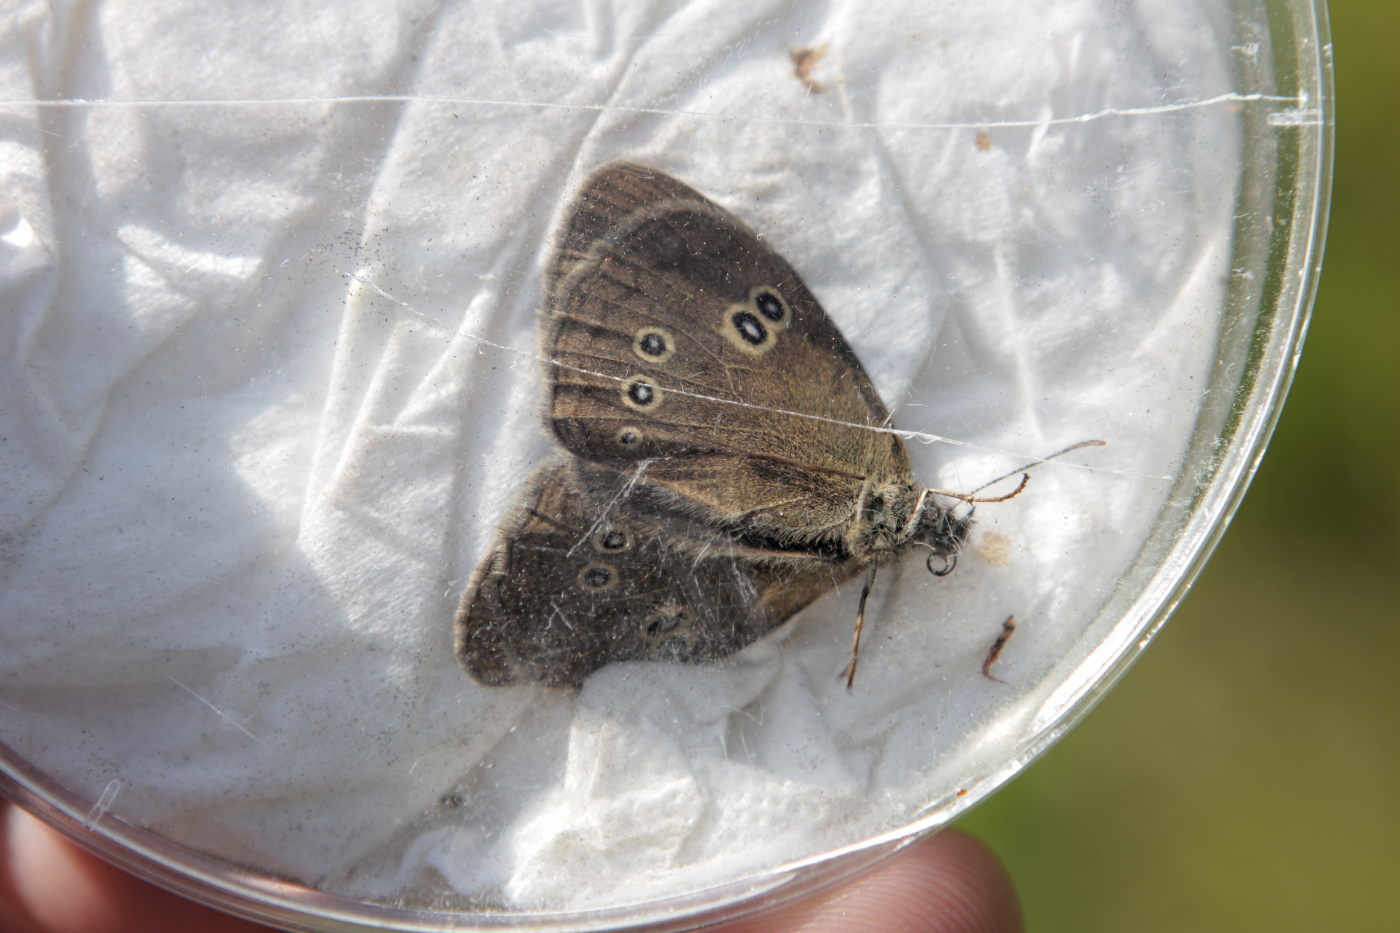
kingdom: Animalia
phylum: Arthropoda
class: Insecta
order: Lepidoptera
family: Nymphalidae
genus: Aphantopus
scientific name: Aphantopus hyperantus
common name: Ringlet
